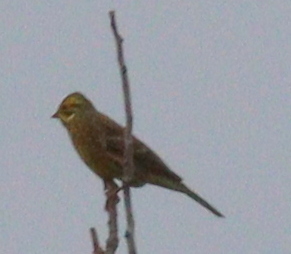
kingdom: Animalia
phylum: Chordata
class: Aves
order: Passeriformes
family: Emberizidae
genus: Emberiza
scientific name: Emberiza citrinella
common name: Yellowhammer
